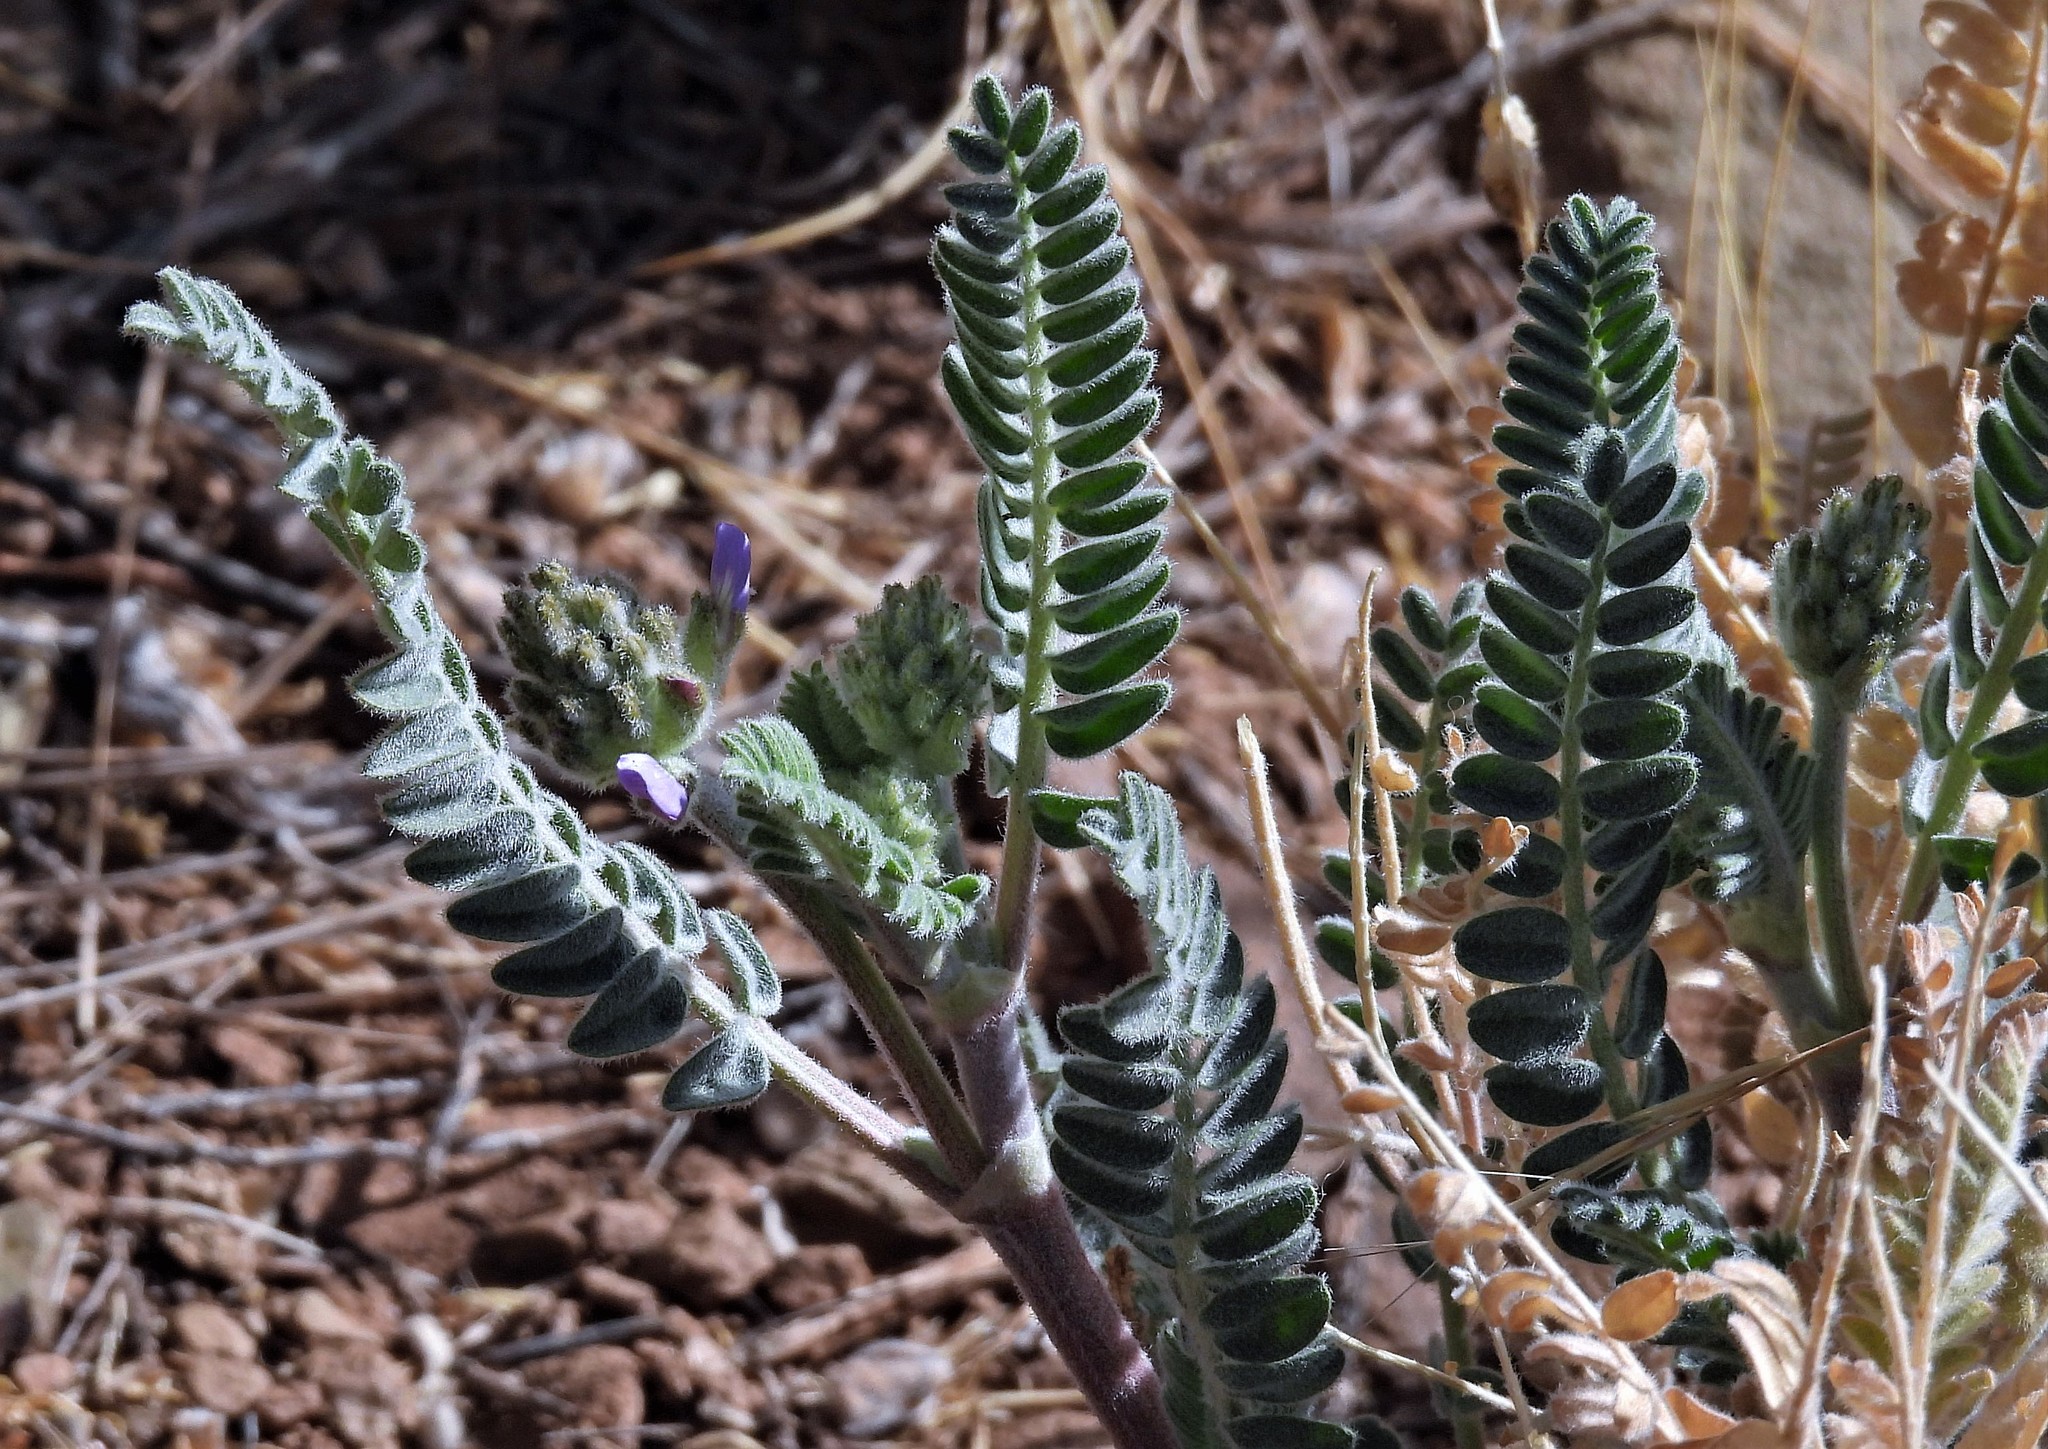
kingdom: Plantae
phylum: Tracheophyta
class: Magnoliopsida
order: Fabales
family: Fabaceae
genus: Astragalus
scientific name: Astragalus garbancillo
